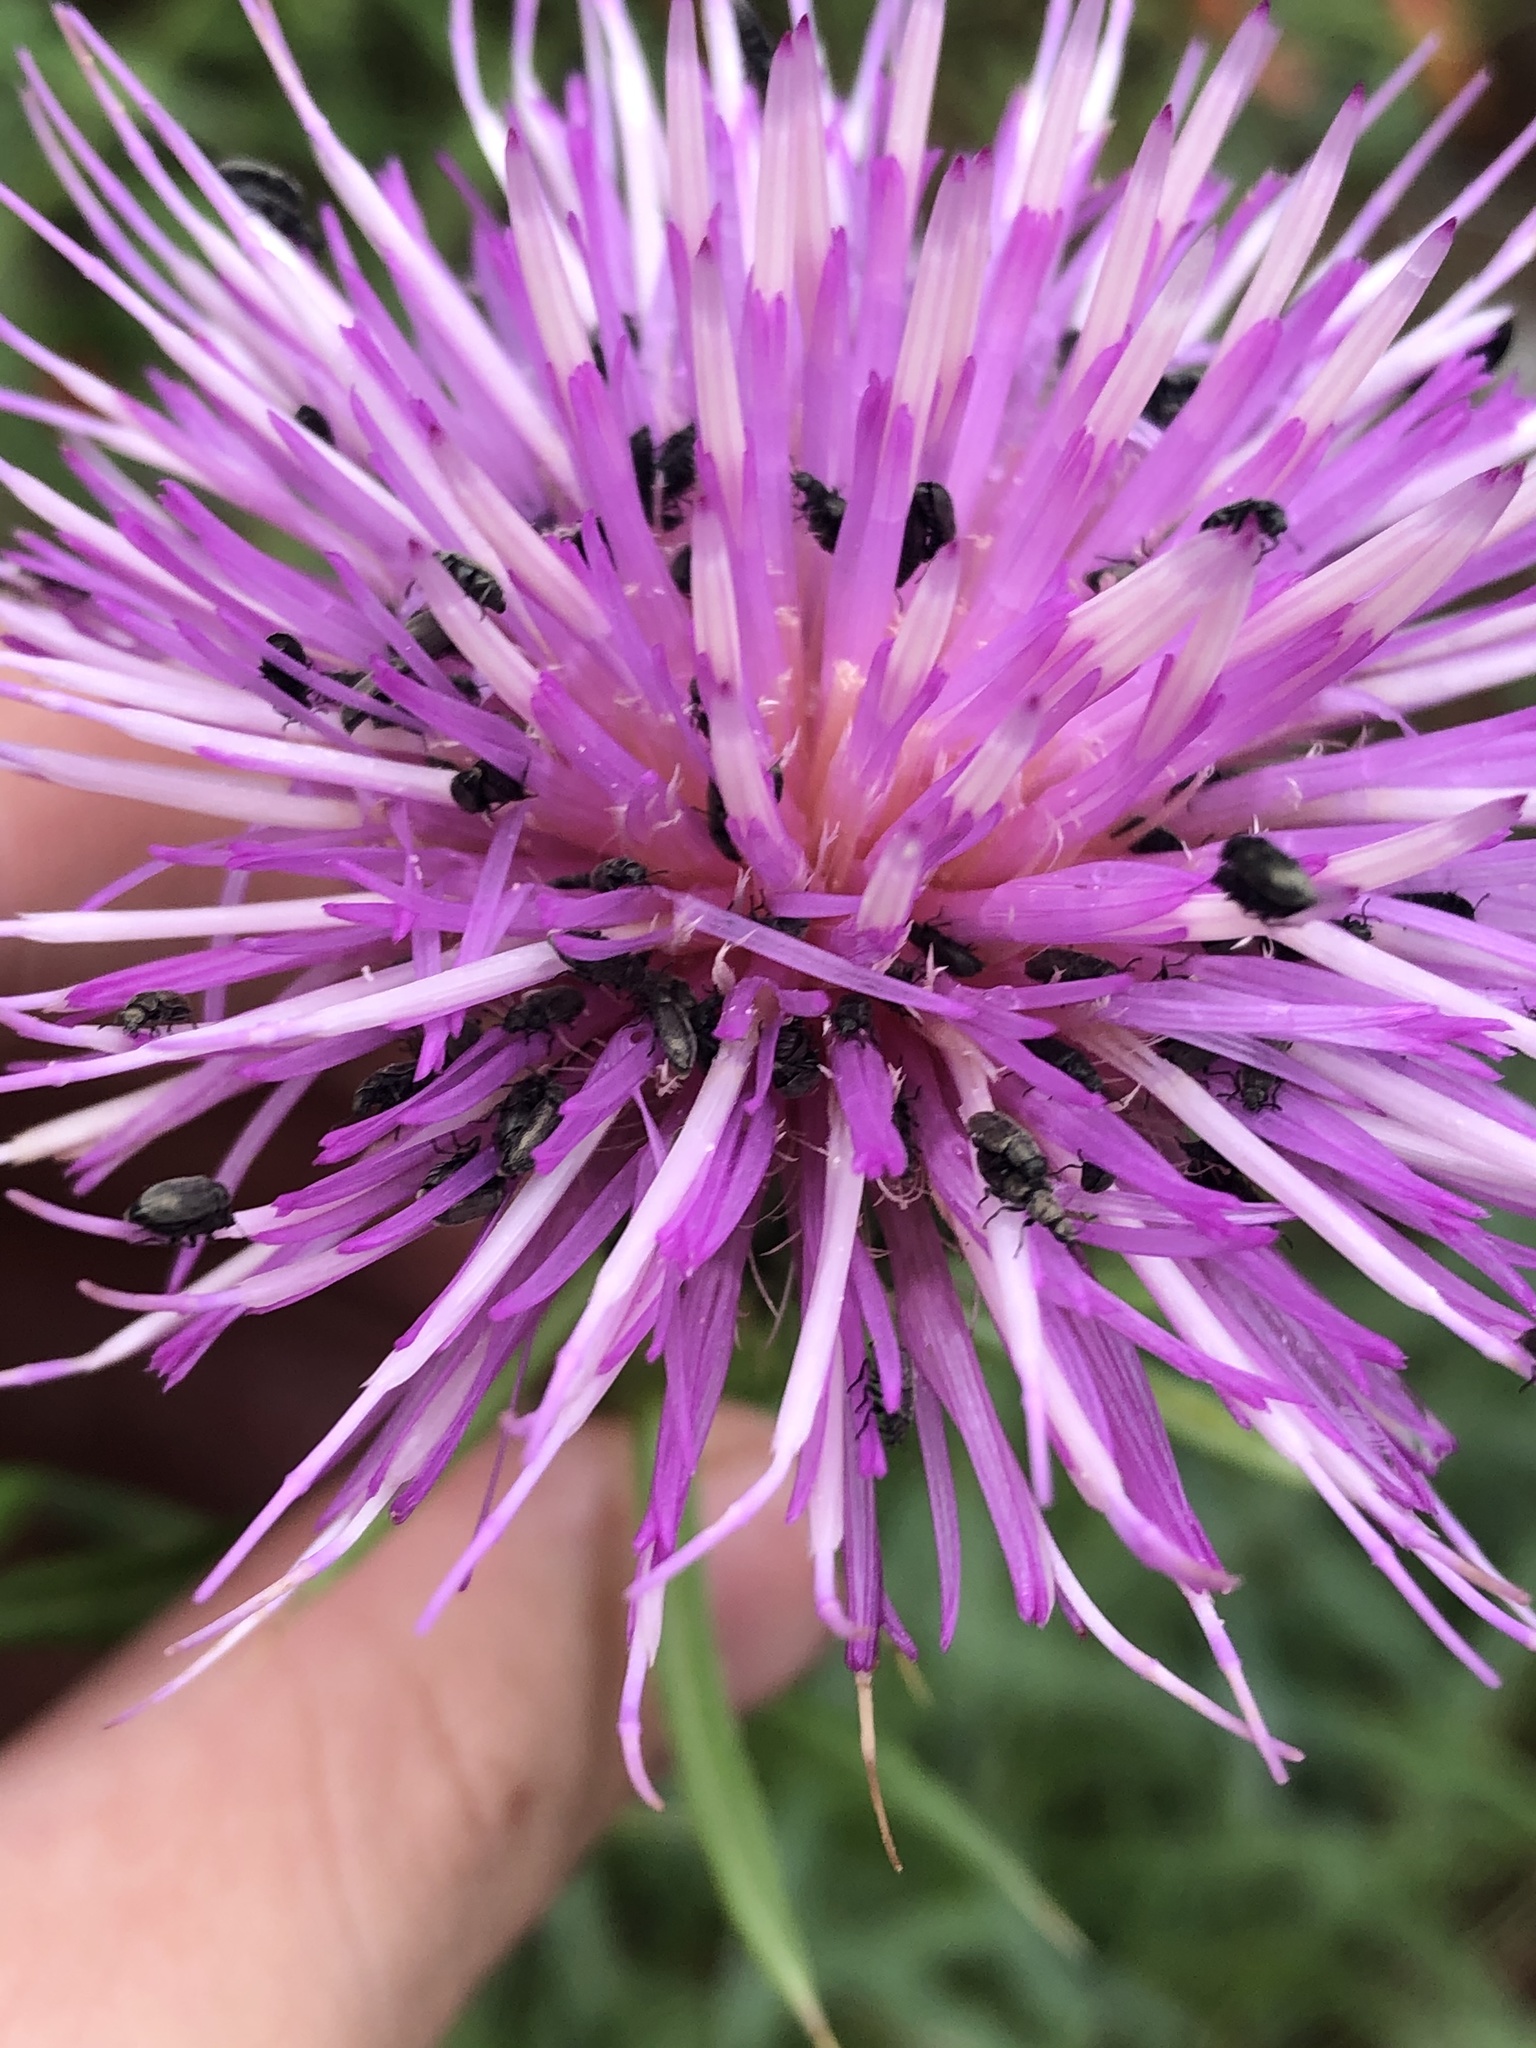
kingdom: Plantae
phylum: Tracheophyta
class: Magnoliopsida
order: Asterales
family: Asteraceae
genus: Cirsium
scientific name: Cirsium wheeleri
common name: Wheeler's thistle
